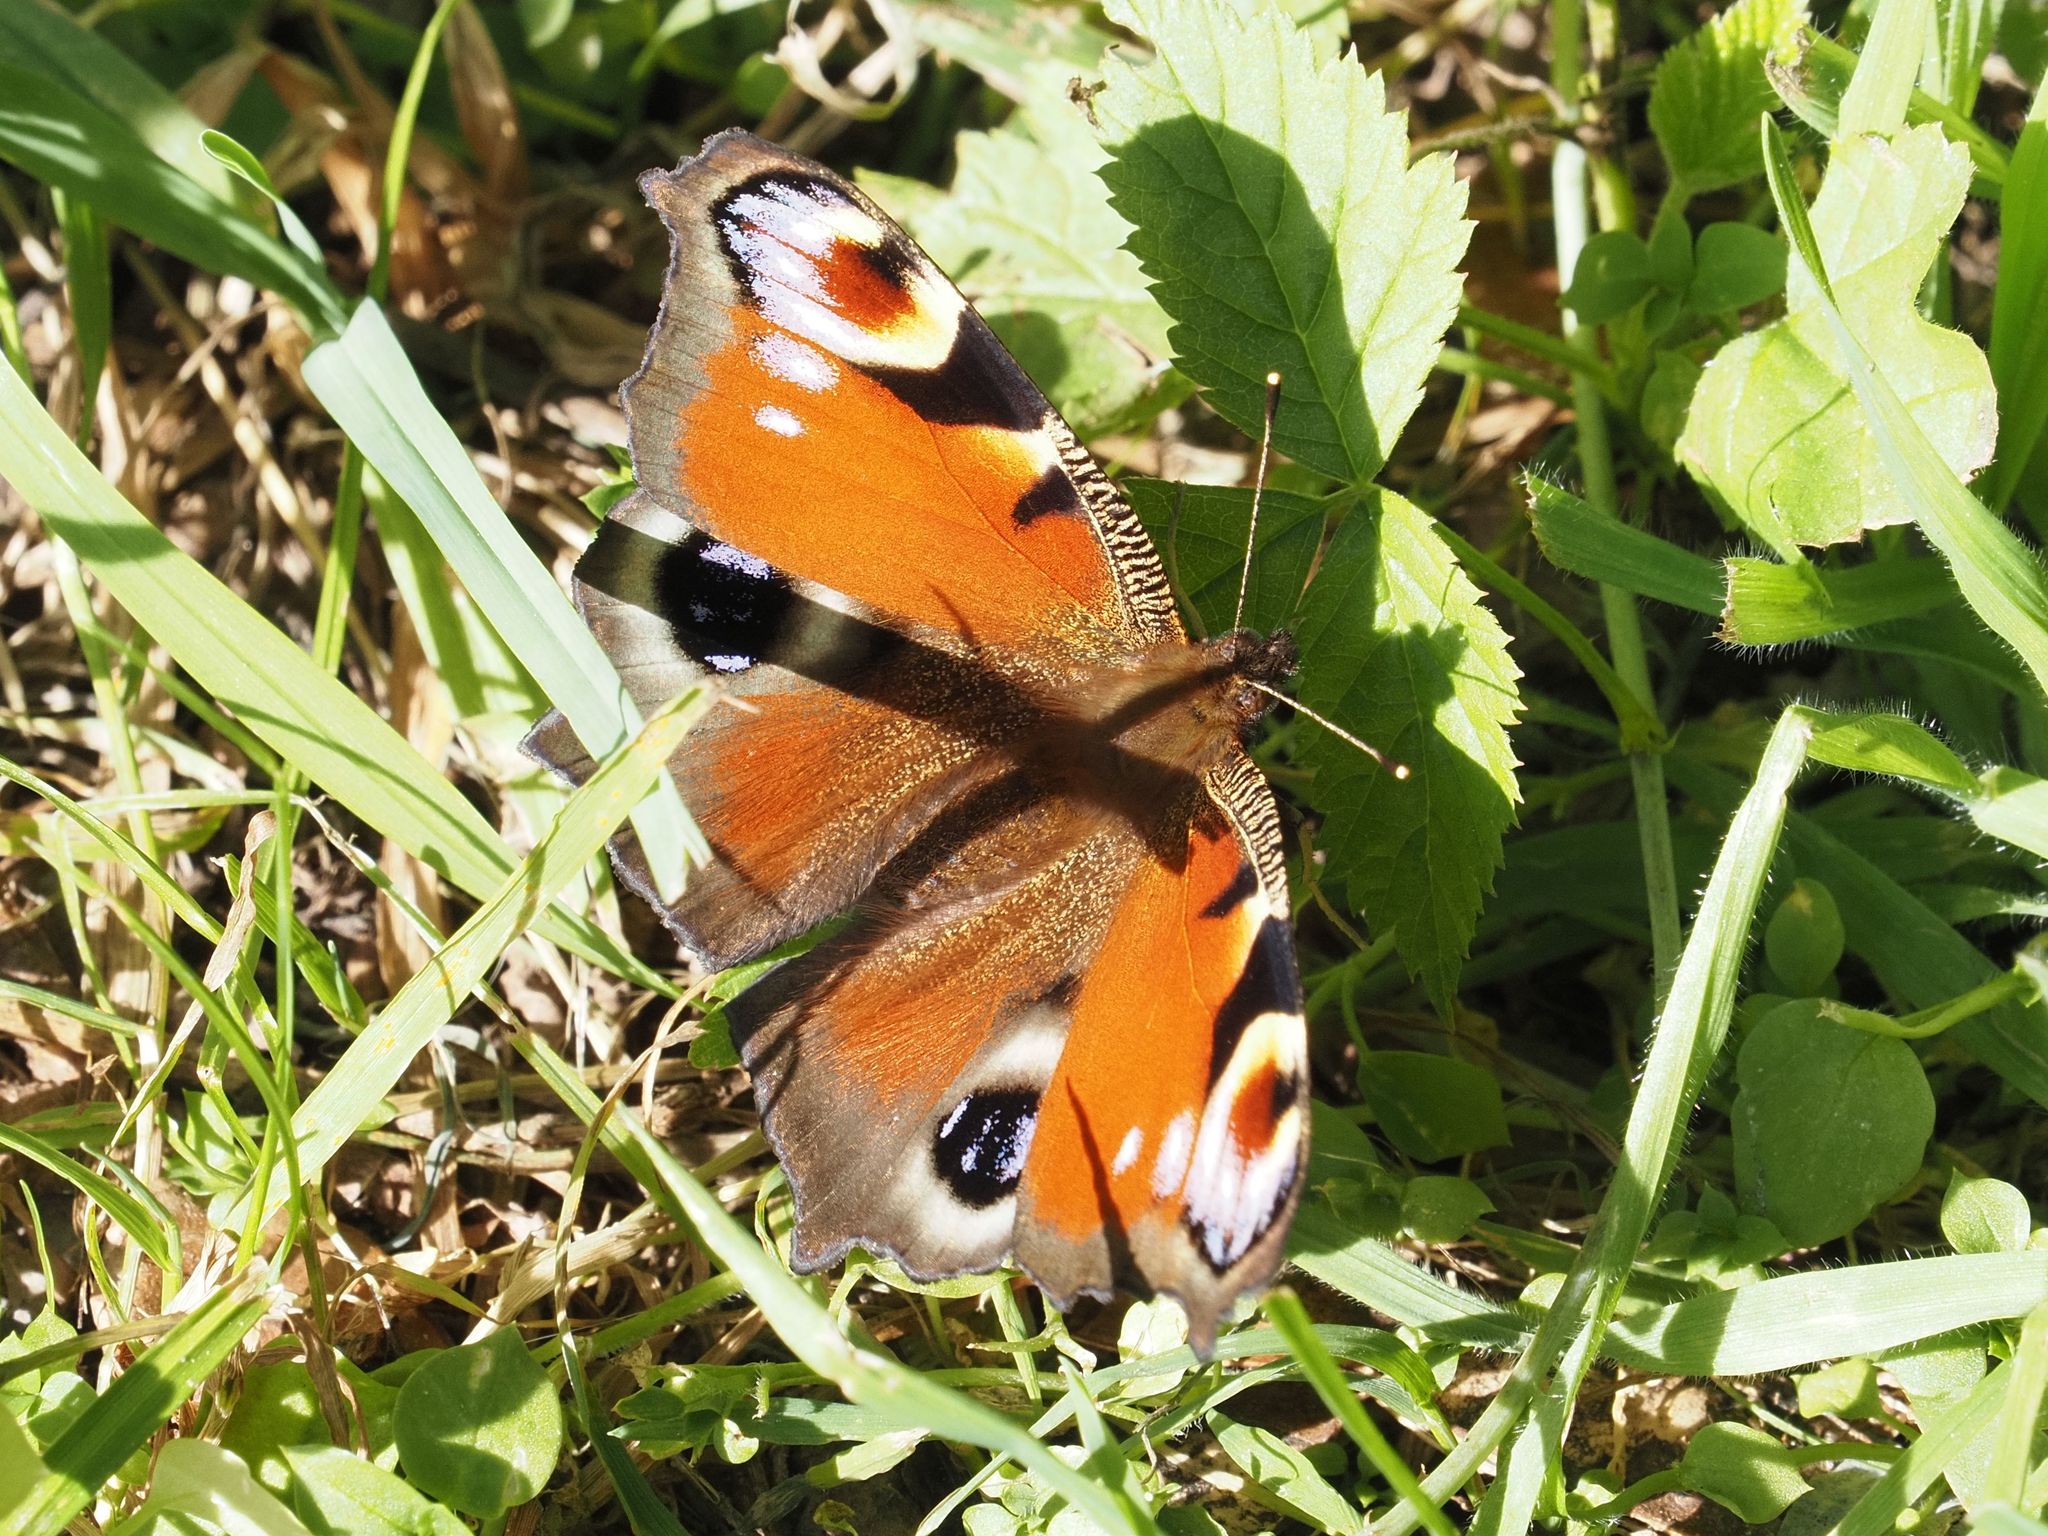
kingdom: Animalia
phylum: Arthropoda
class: Insecta
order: Lepidoptera
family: Nymphalidae
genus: Aglais
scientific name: Aglais io
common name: Peacock
